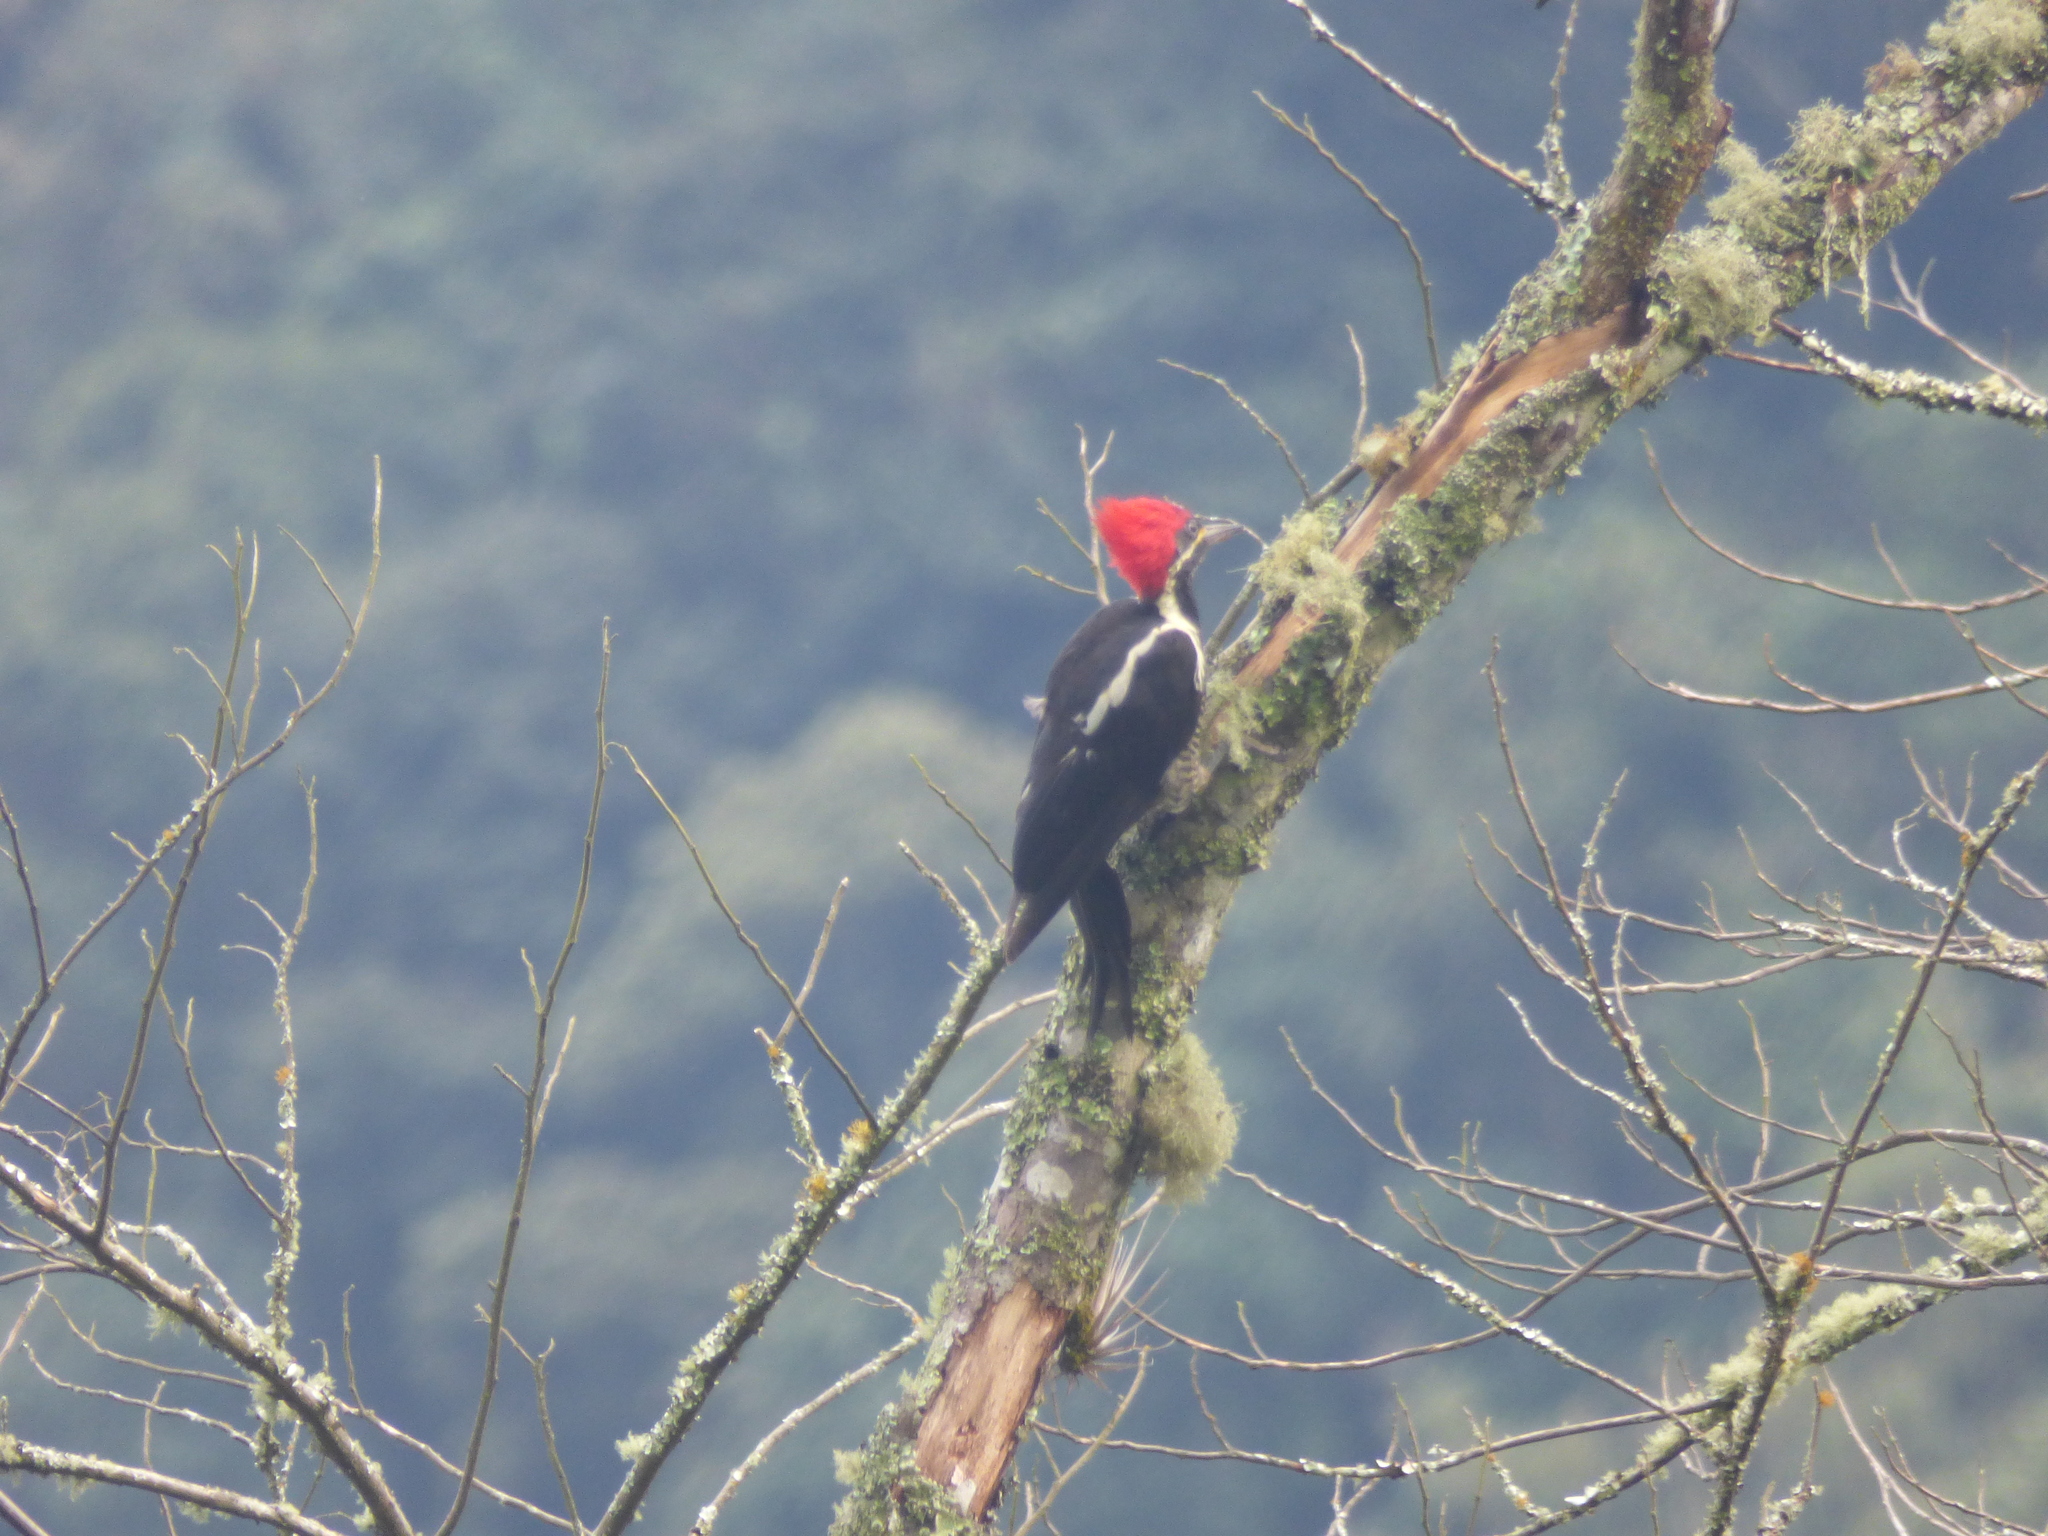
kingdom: Animalia
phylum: Chordata
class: Aves
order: Piciformes
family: Picidae
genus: Dryocopus
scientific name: Dryocopus lineatus
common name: Lineated woodpecker
